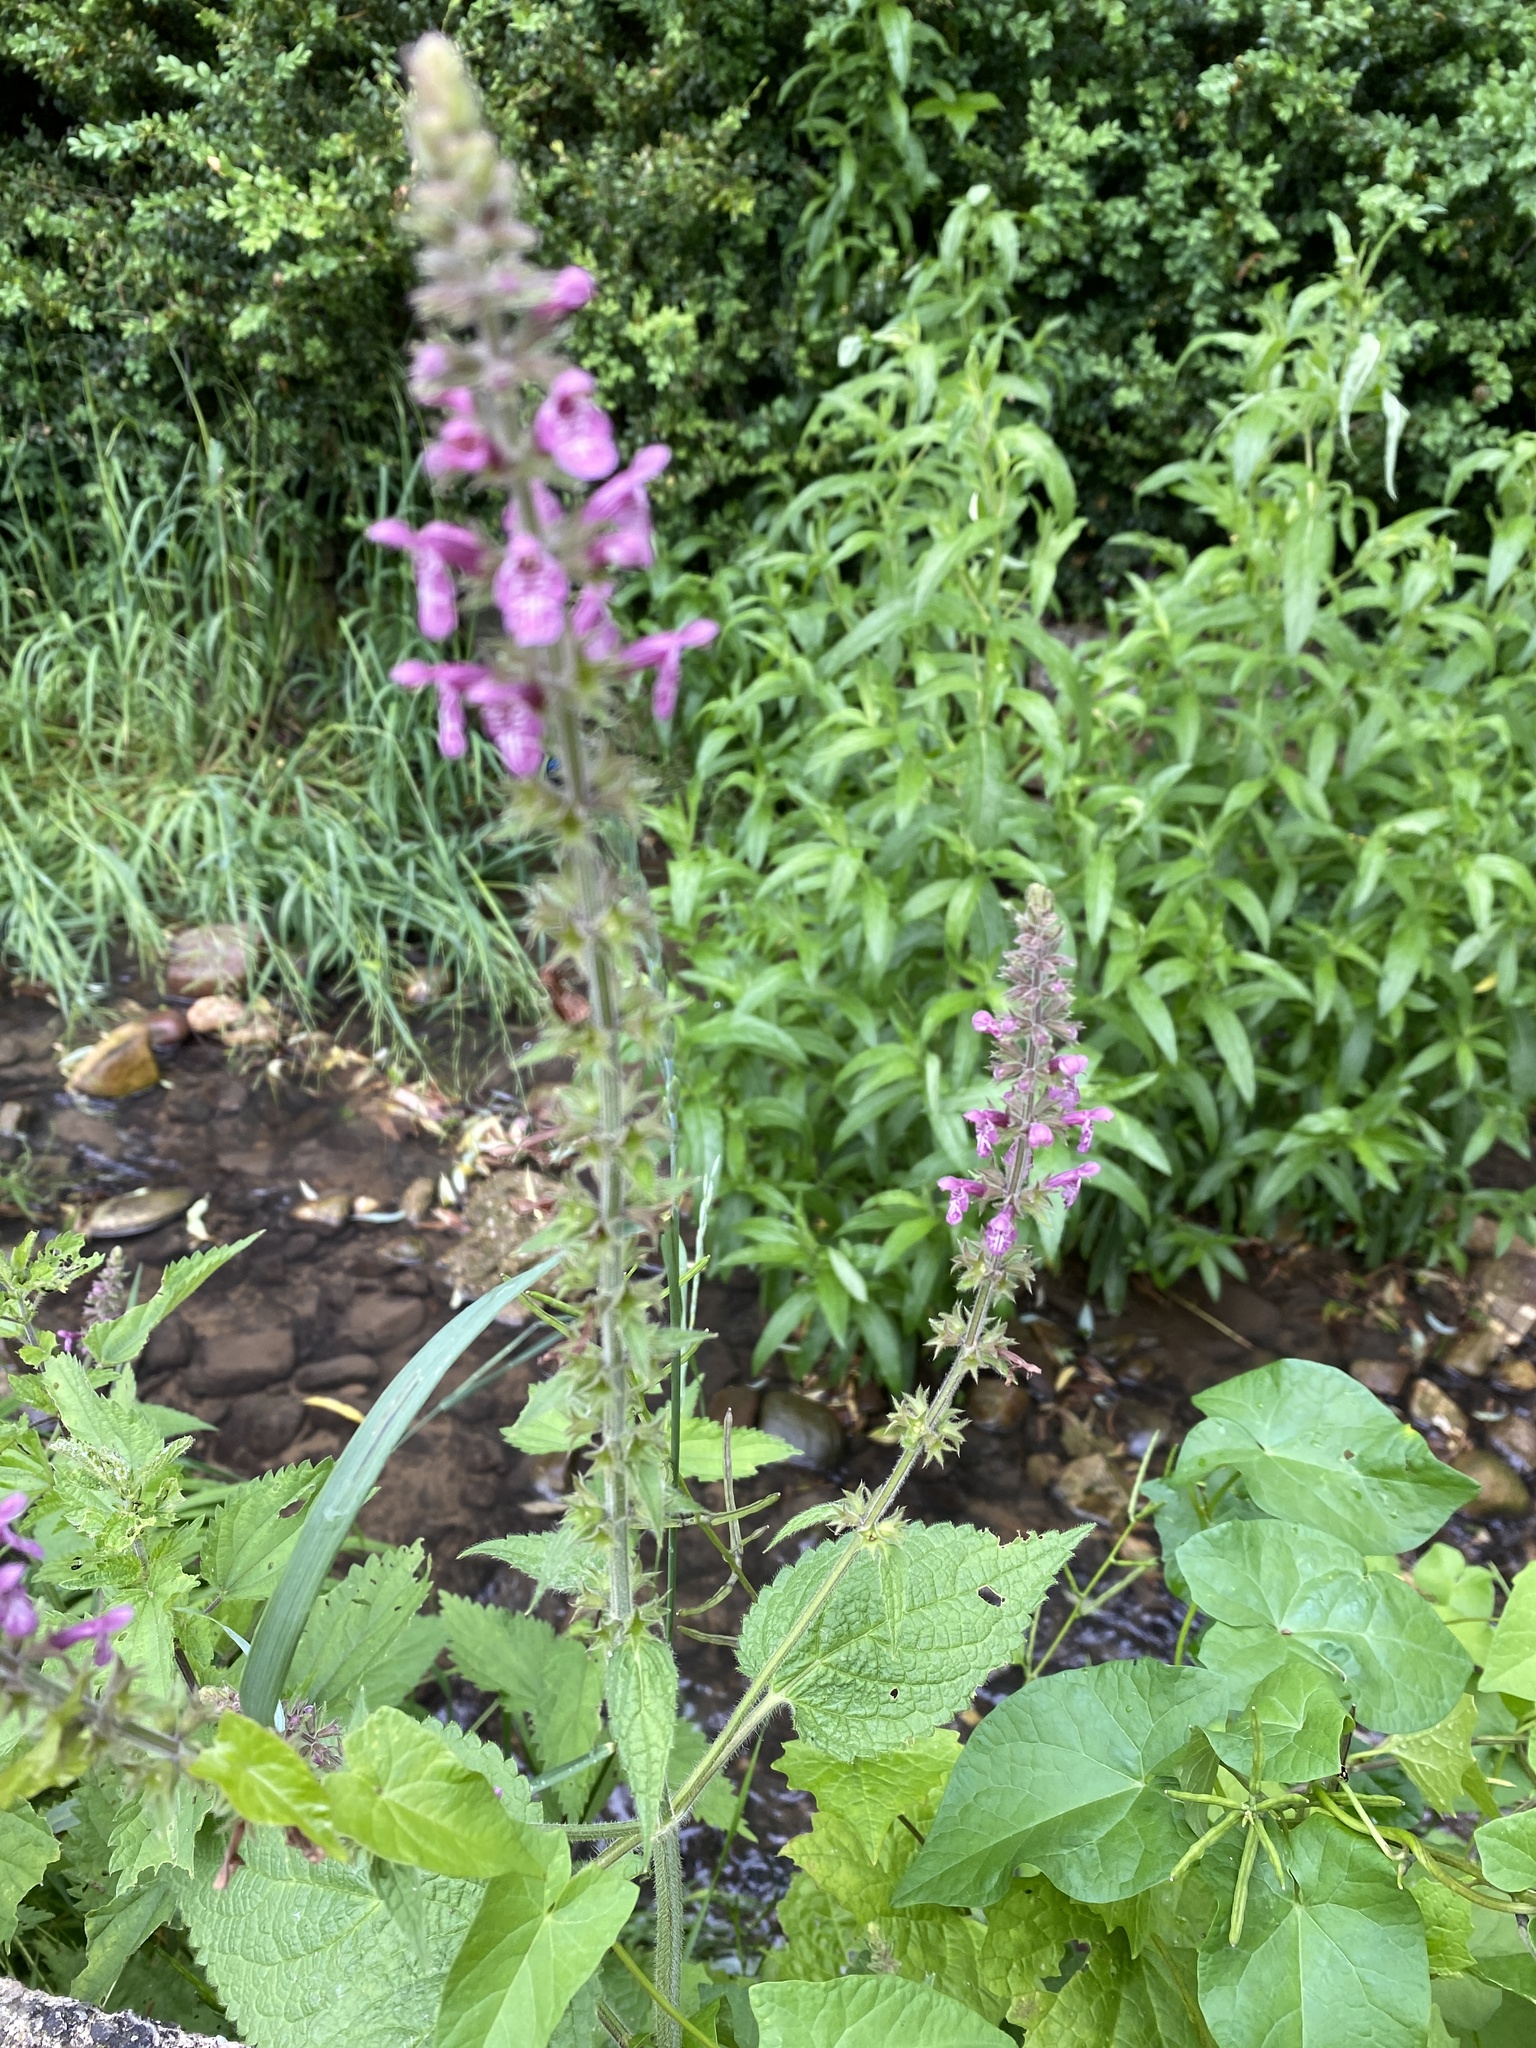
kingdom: Plantae
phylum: Tracheophyta
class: Magnoliopsida
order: Lamiales
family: Lamiaceae
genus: Stachys
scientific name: Stachys sylvatica
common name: Hedge woundwort
